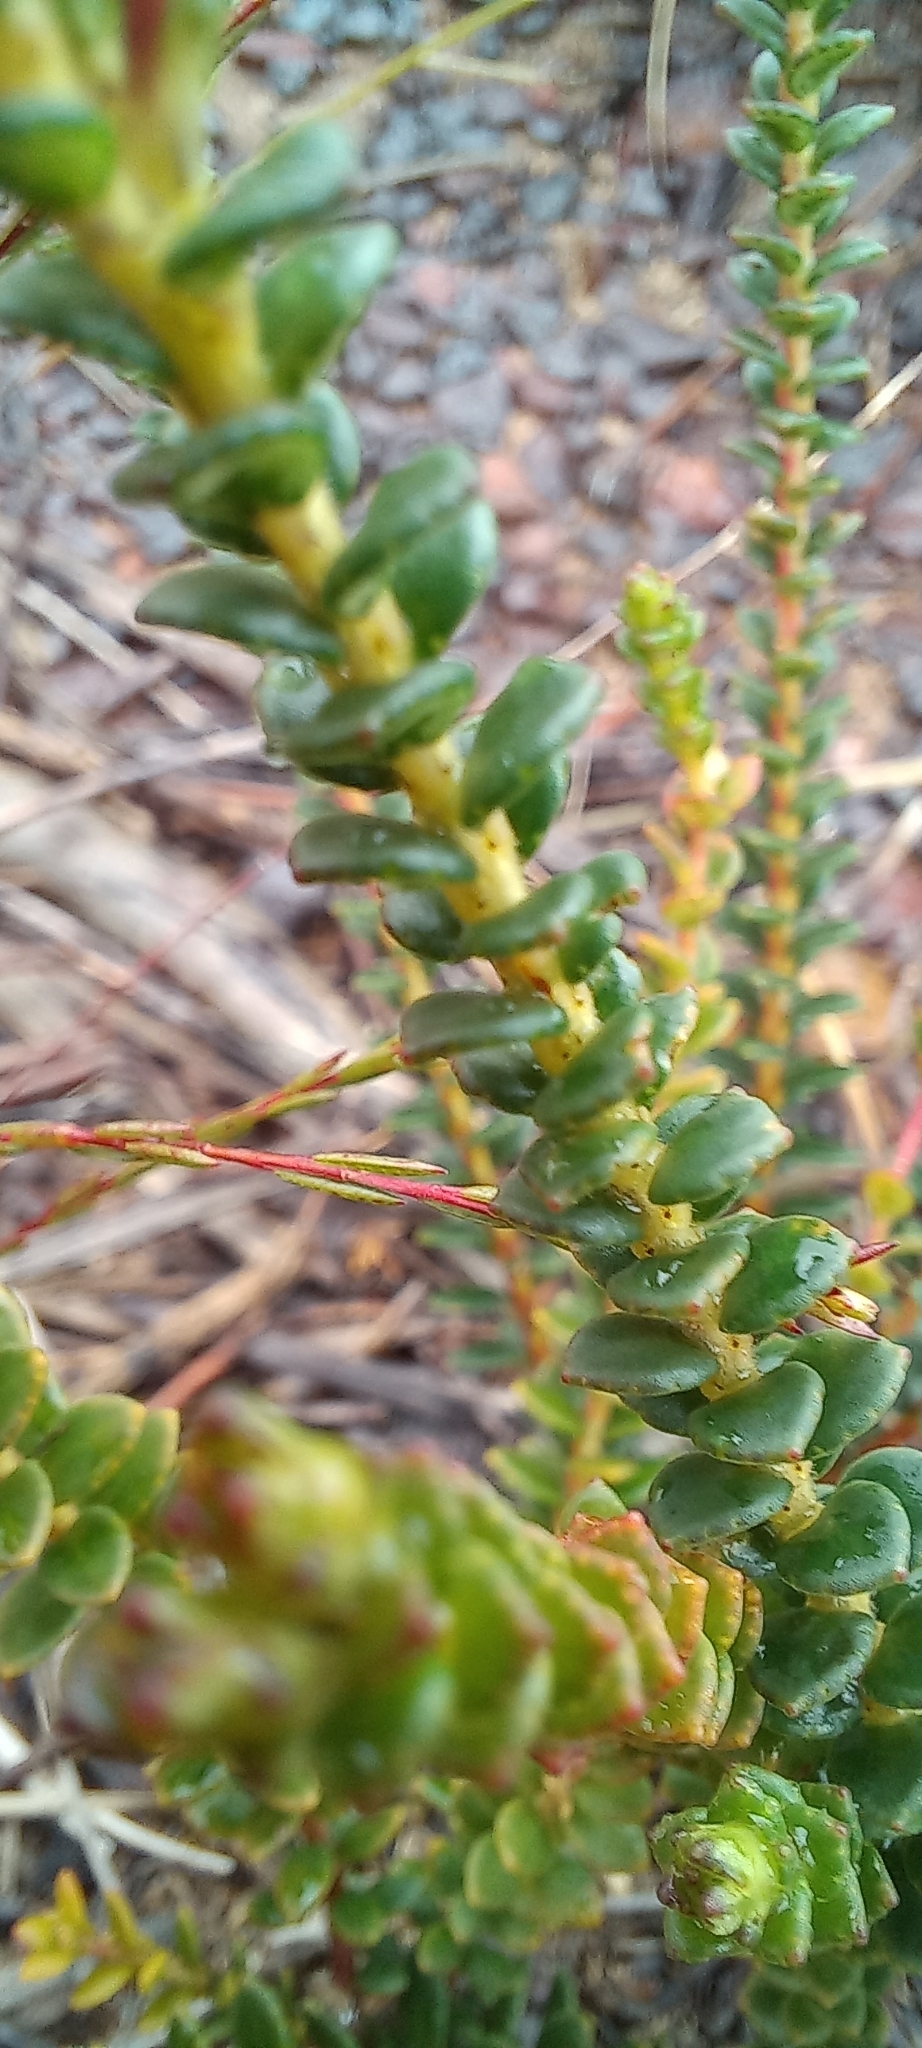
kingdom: Plantae
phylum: Tracheophyta
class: Magnoliopsida
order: Sapindales
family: Rutaceae
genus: Adenandra
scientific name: Adenandra brachyphylla
